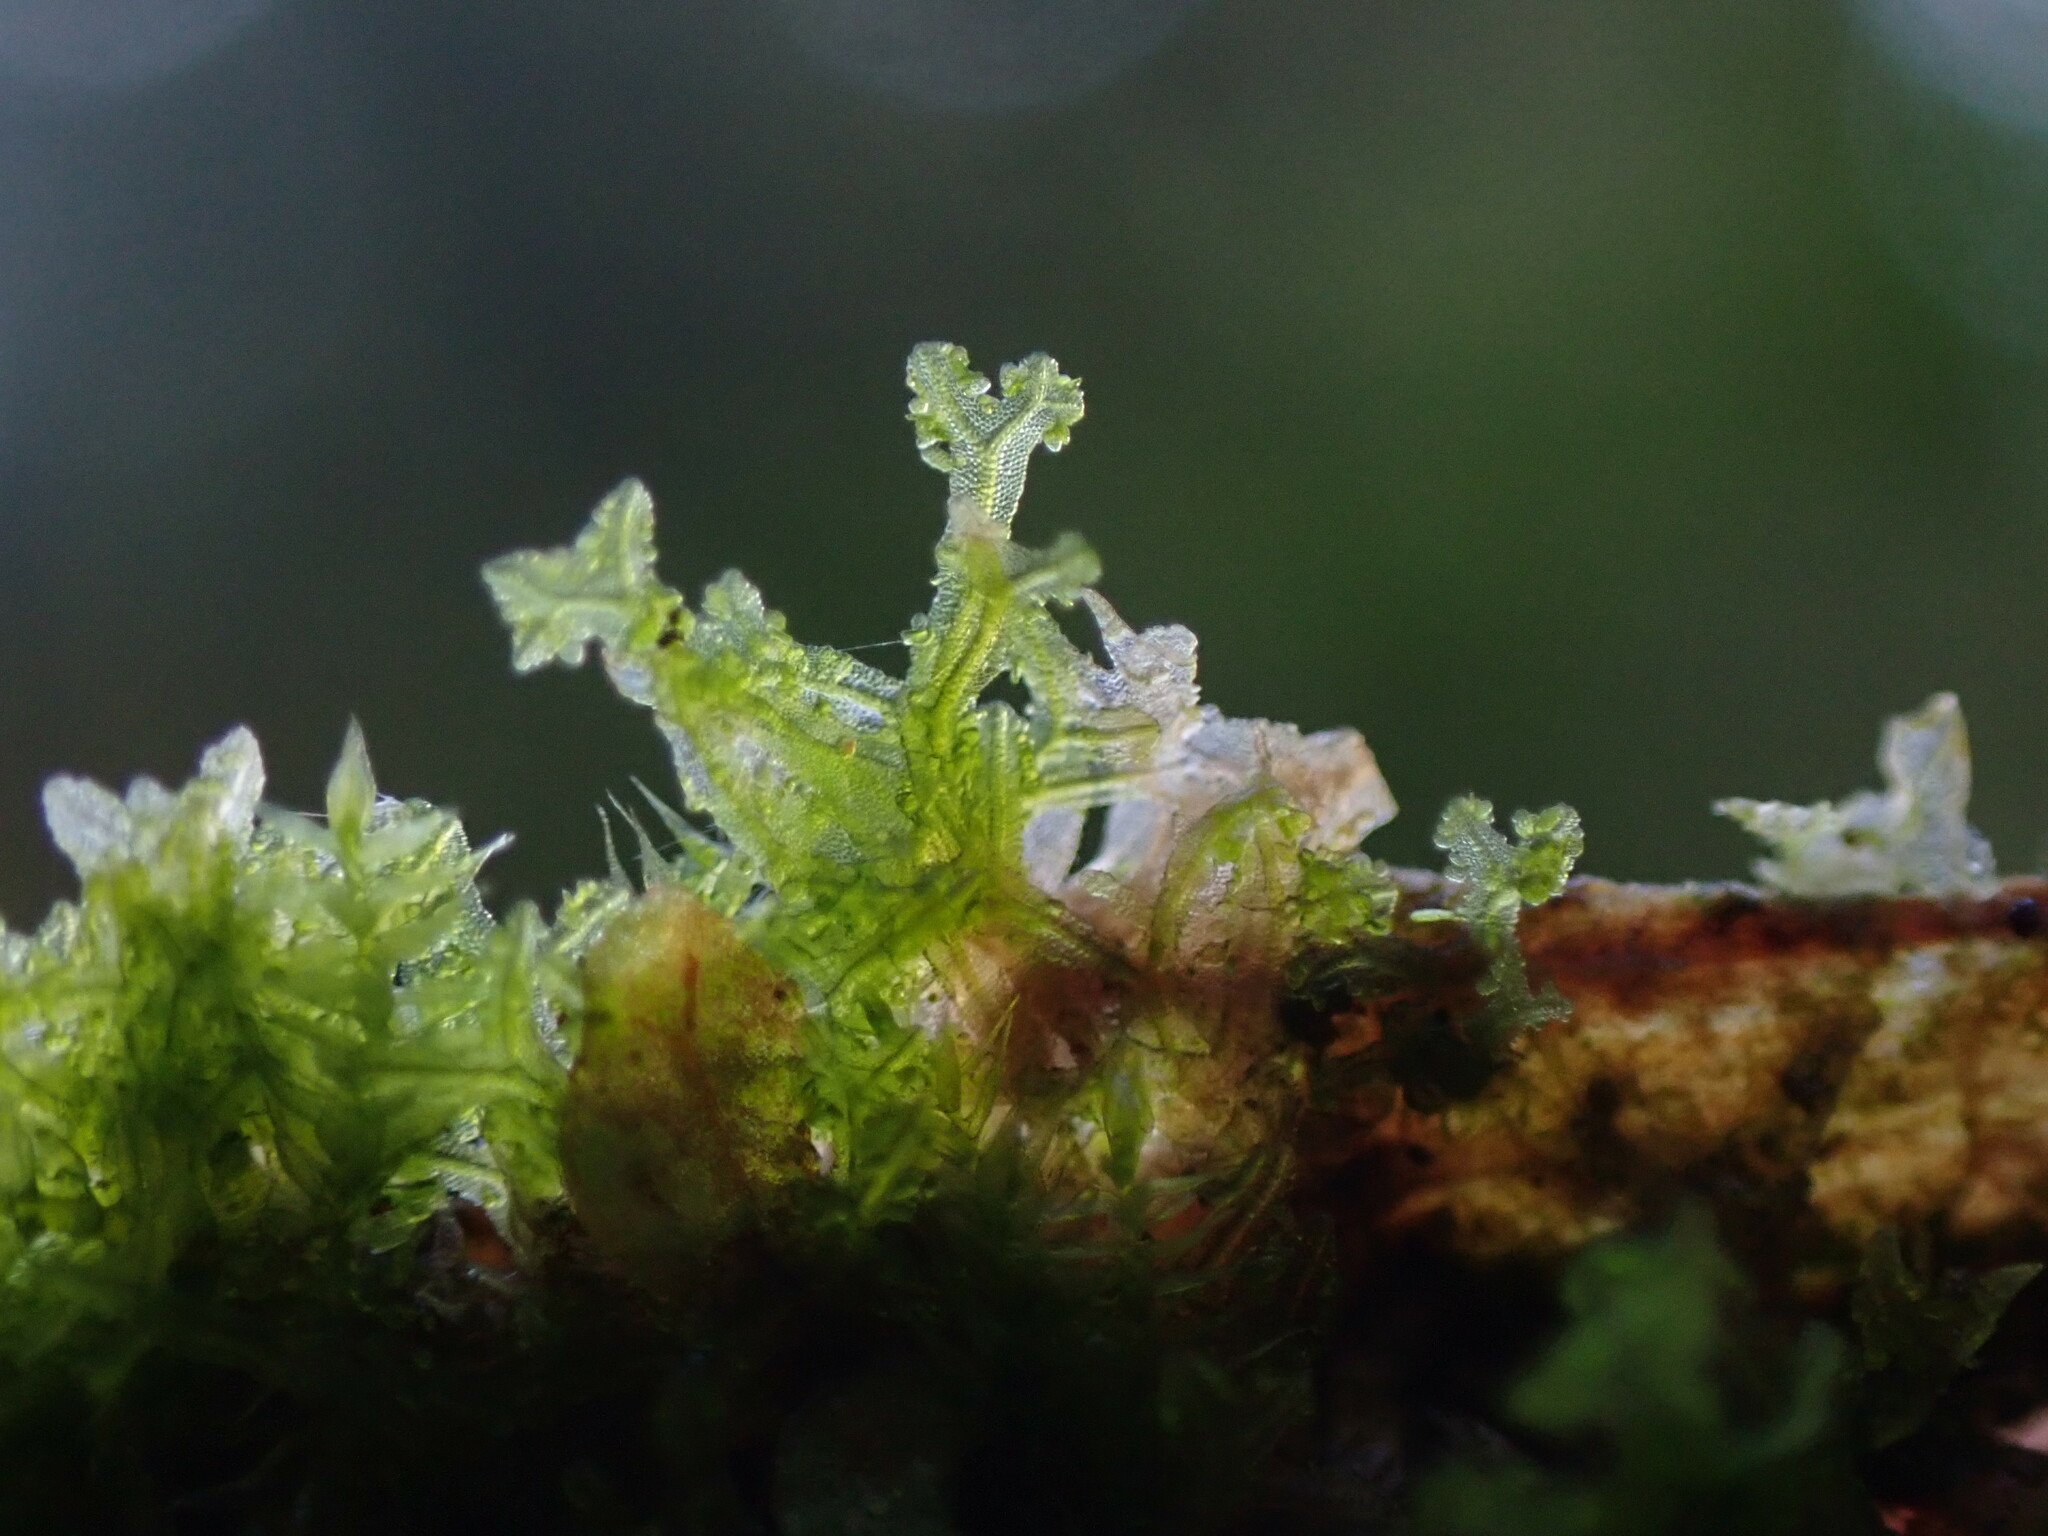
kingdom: Plantae
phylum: Marchantiophyta
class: Jungermanniopsida
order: Metzgeriales
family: Metzgeriaceae
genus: Metzgeria
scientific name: Metzgeria consanguinea
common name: Whiskered veilwort
